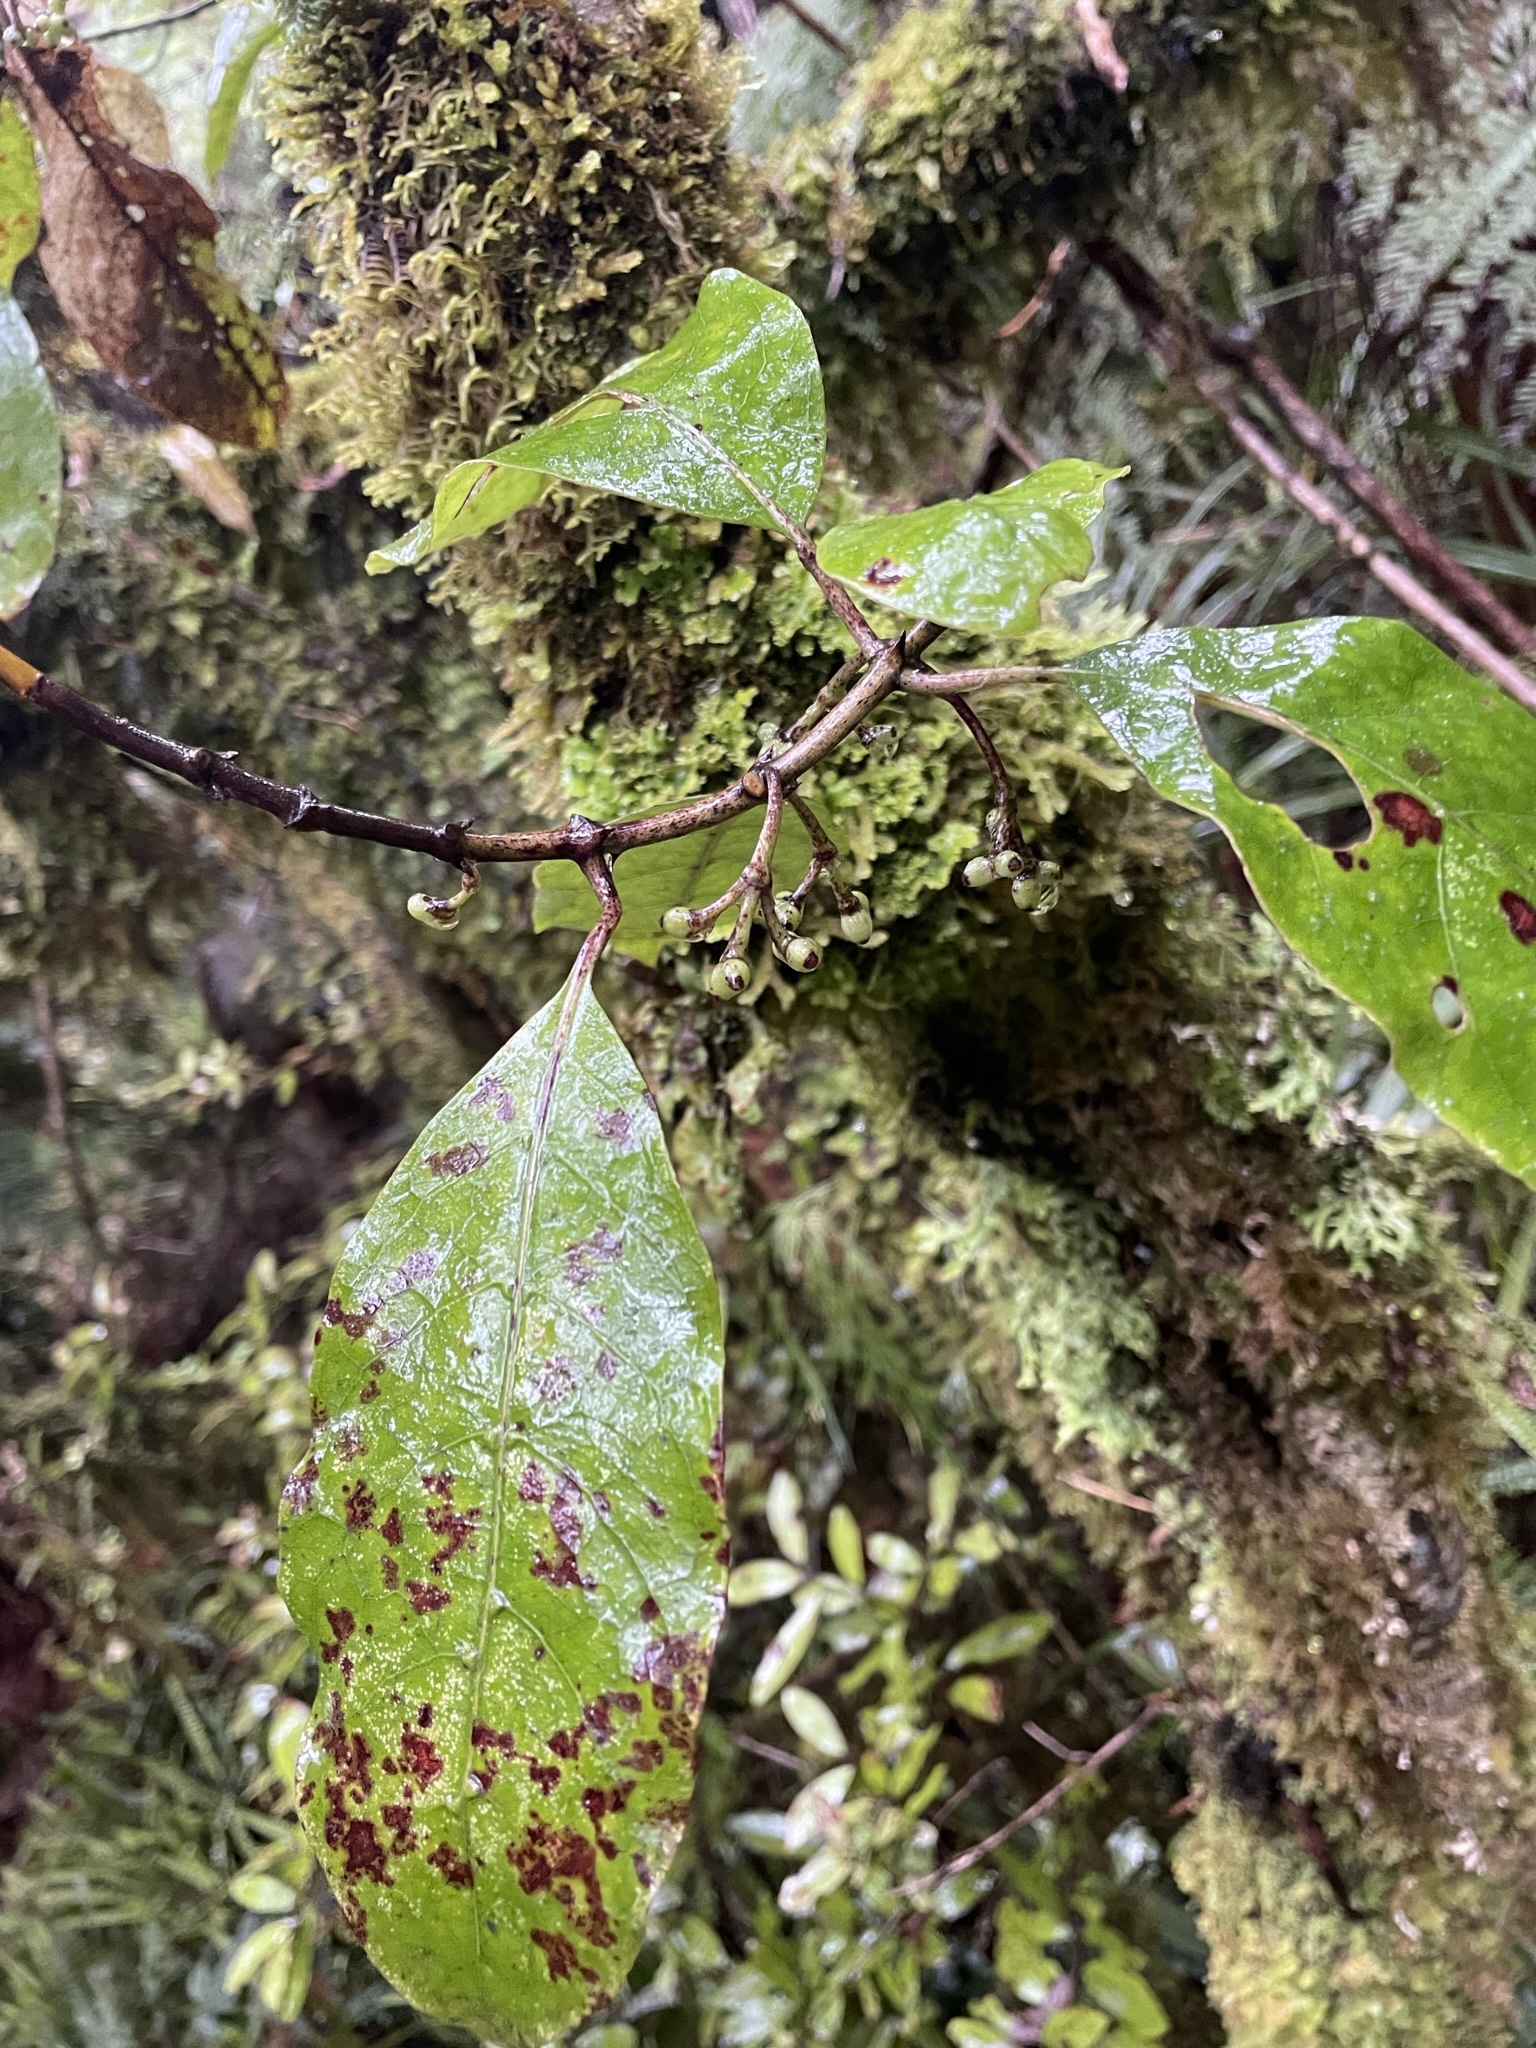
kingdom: Plantae
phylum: Tracheophyta
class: Magnoliopsida
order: Gentianales
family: Rubiaceae
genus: Coprosma
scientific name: Coprosma autumnalis
